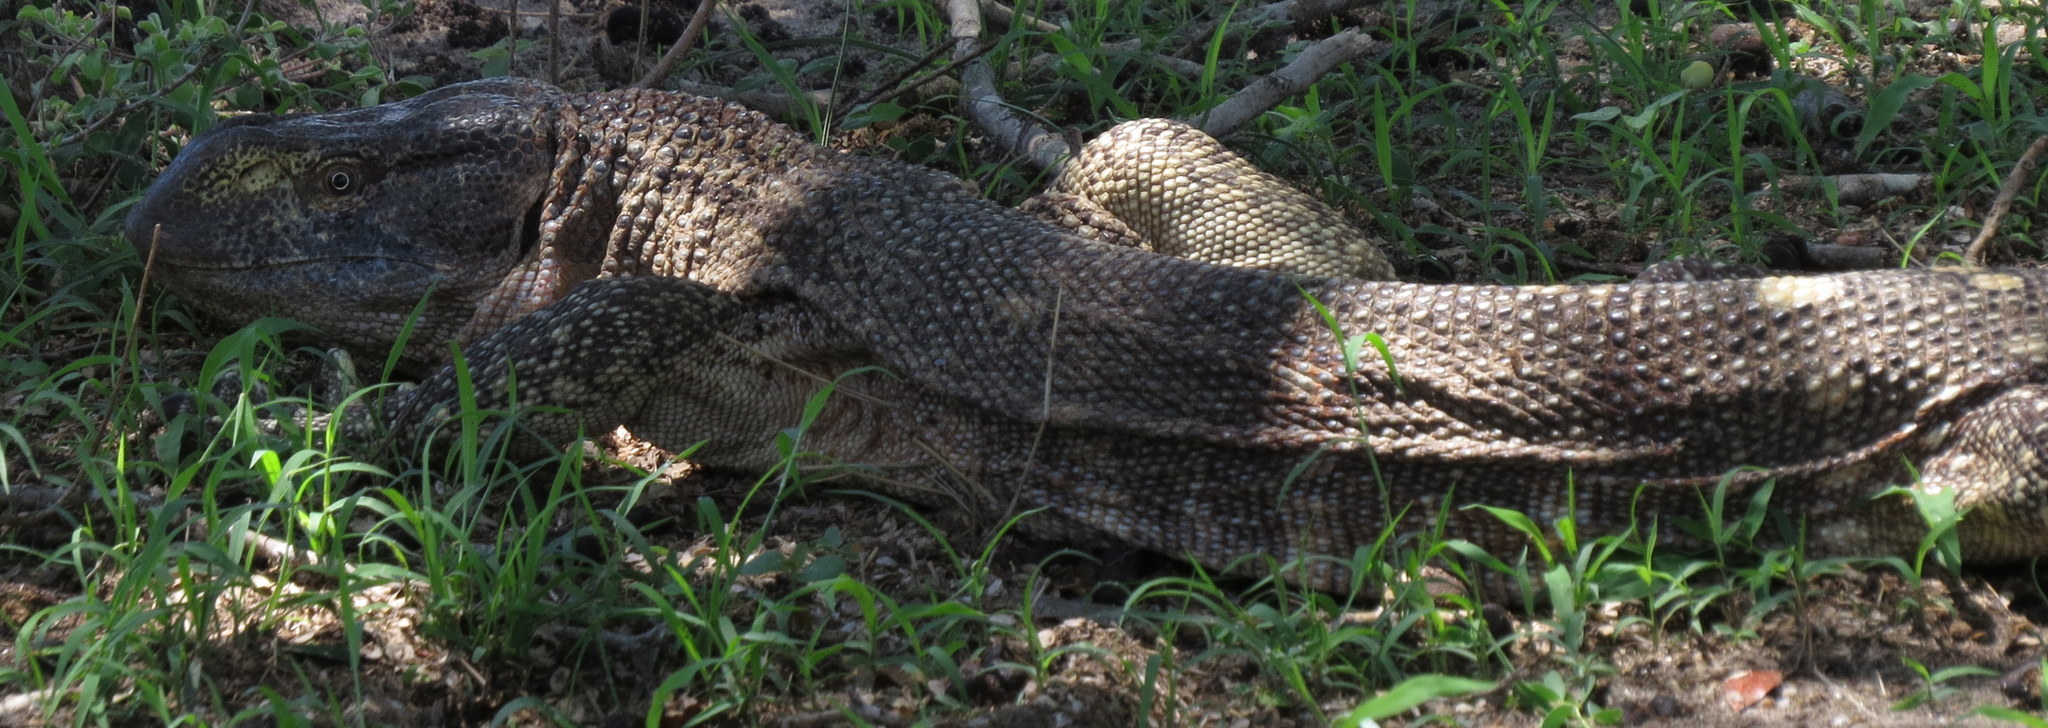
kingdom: Animalia
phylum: Chordata
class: Squamata
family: Varanidae
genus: Varanus
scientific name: Varanus albigularis
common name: White-throated monitor
